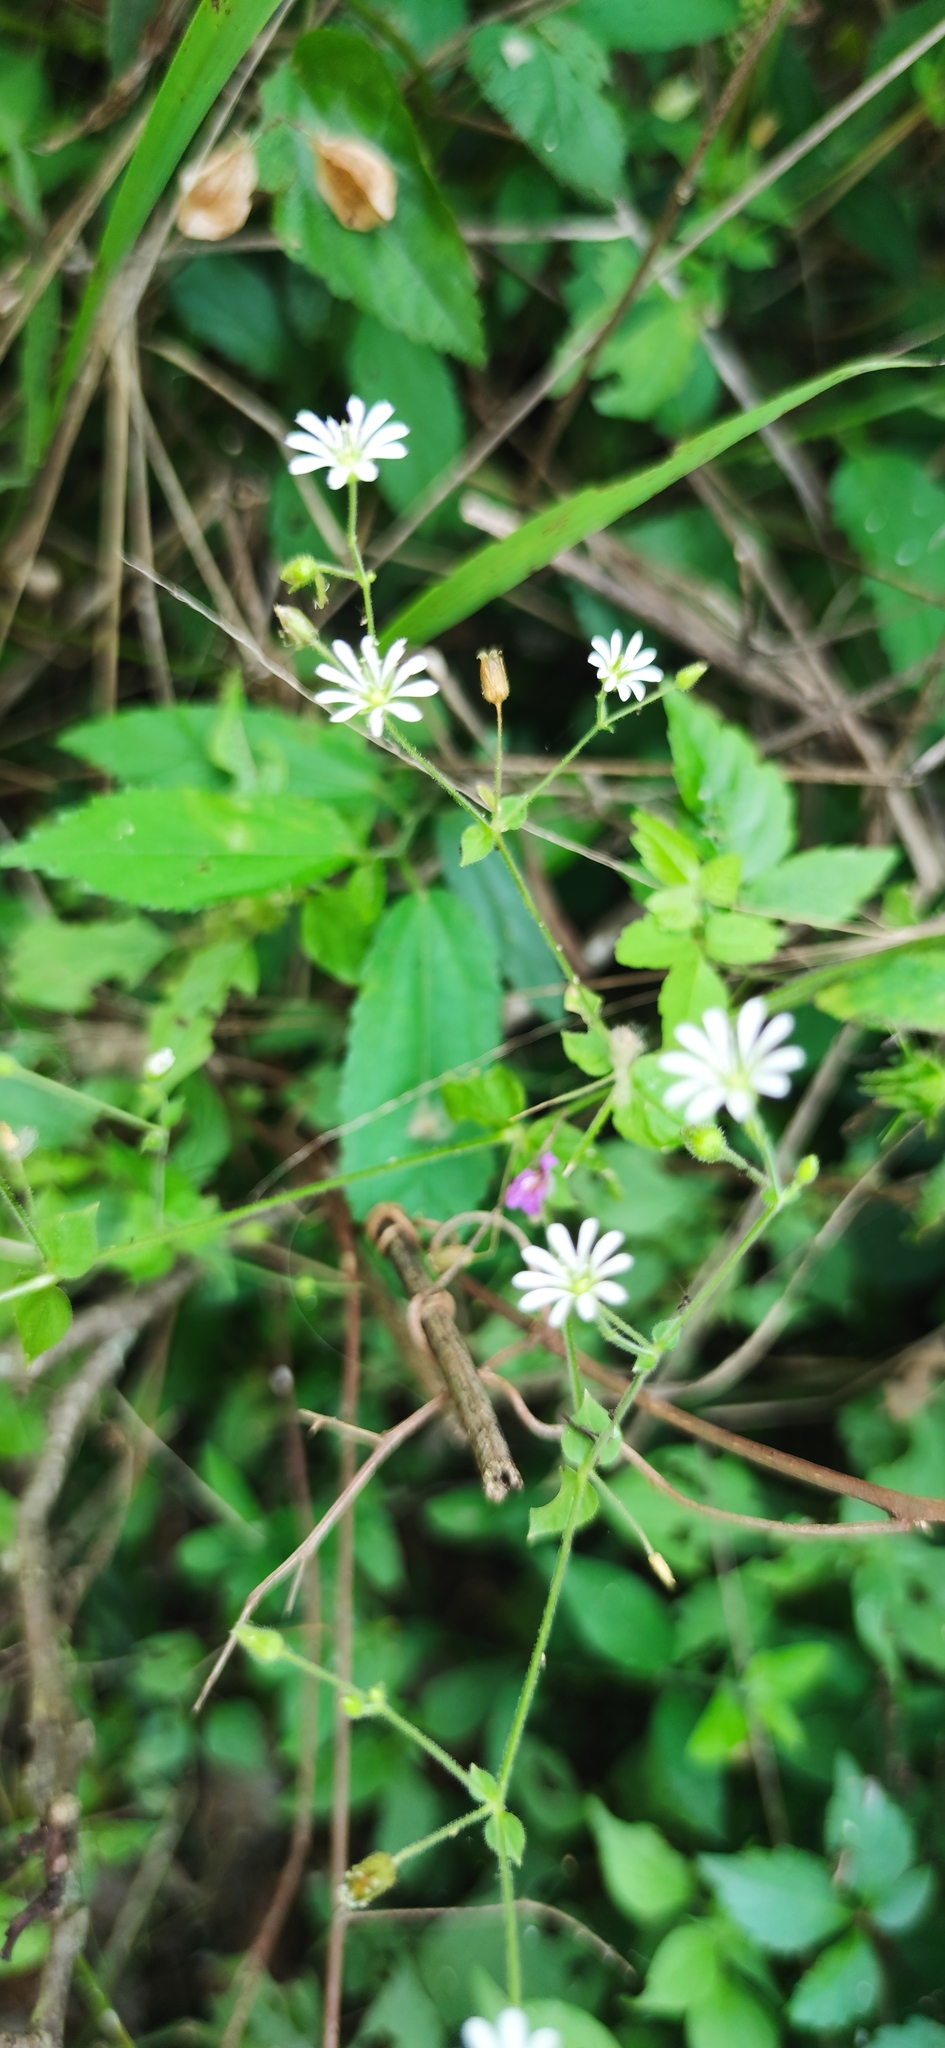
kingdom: Plantae
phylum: Tracheophyta
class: Magnoliopsida
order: Caryophyllales
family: Caryophyllaceae
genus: Stellaria
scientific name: Stellaria cuspidata
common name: Mexican chickweed
